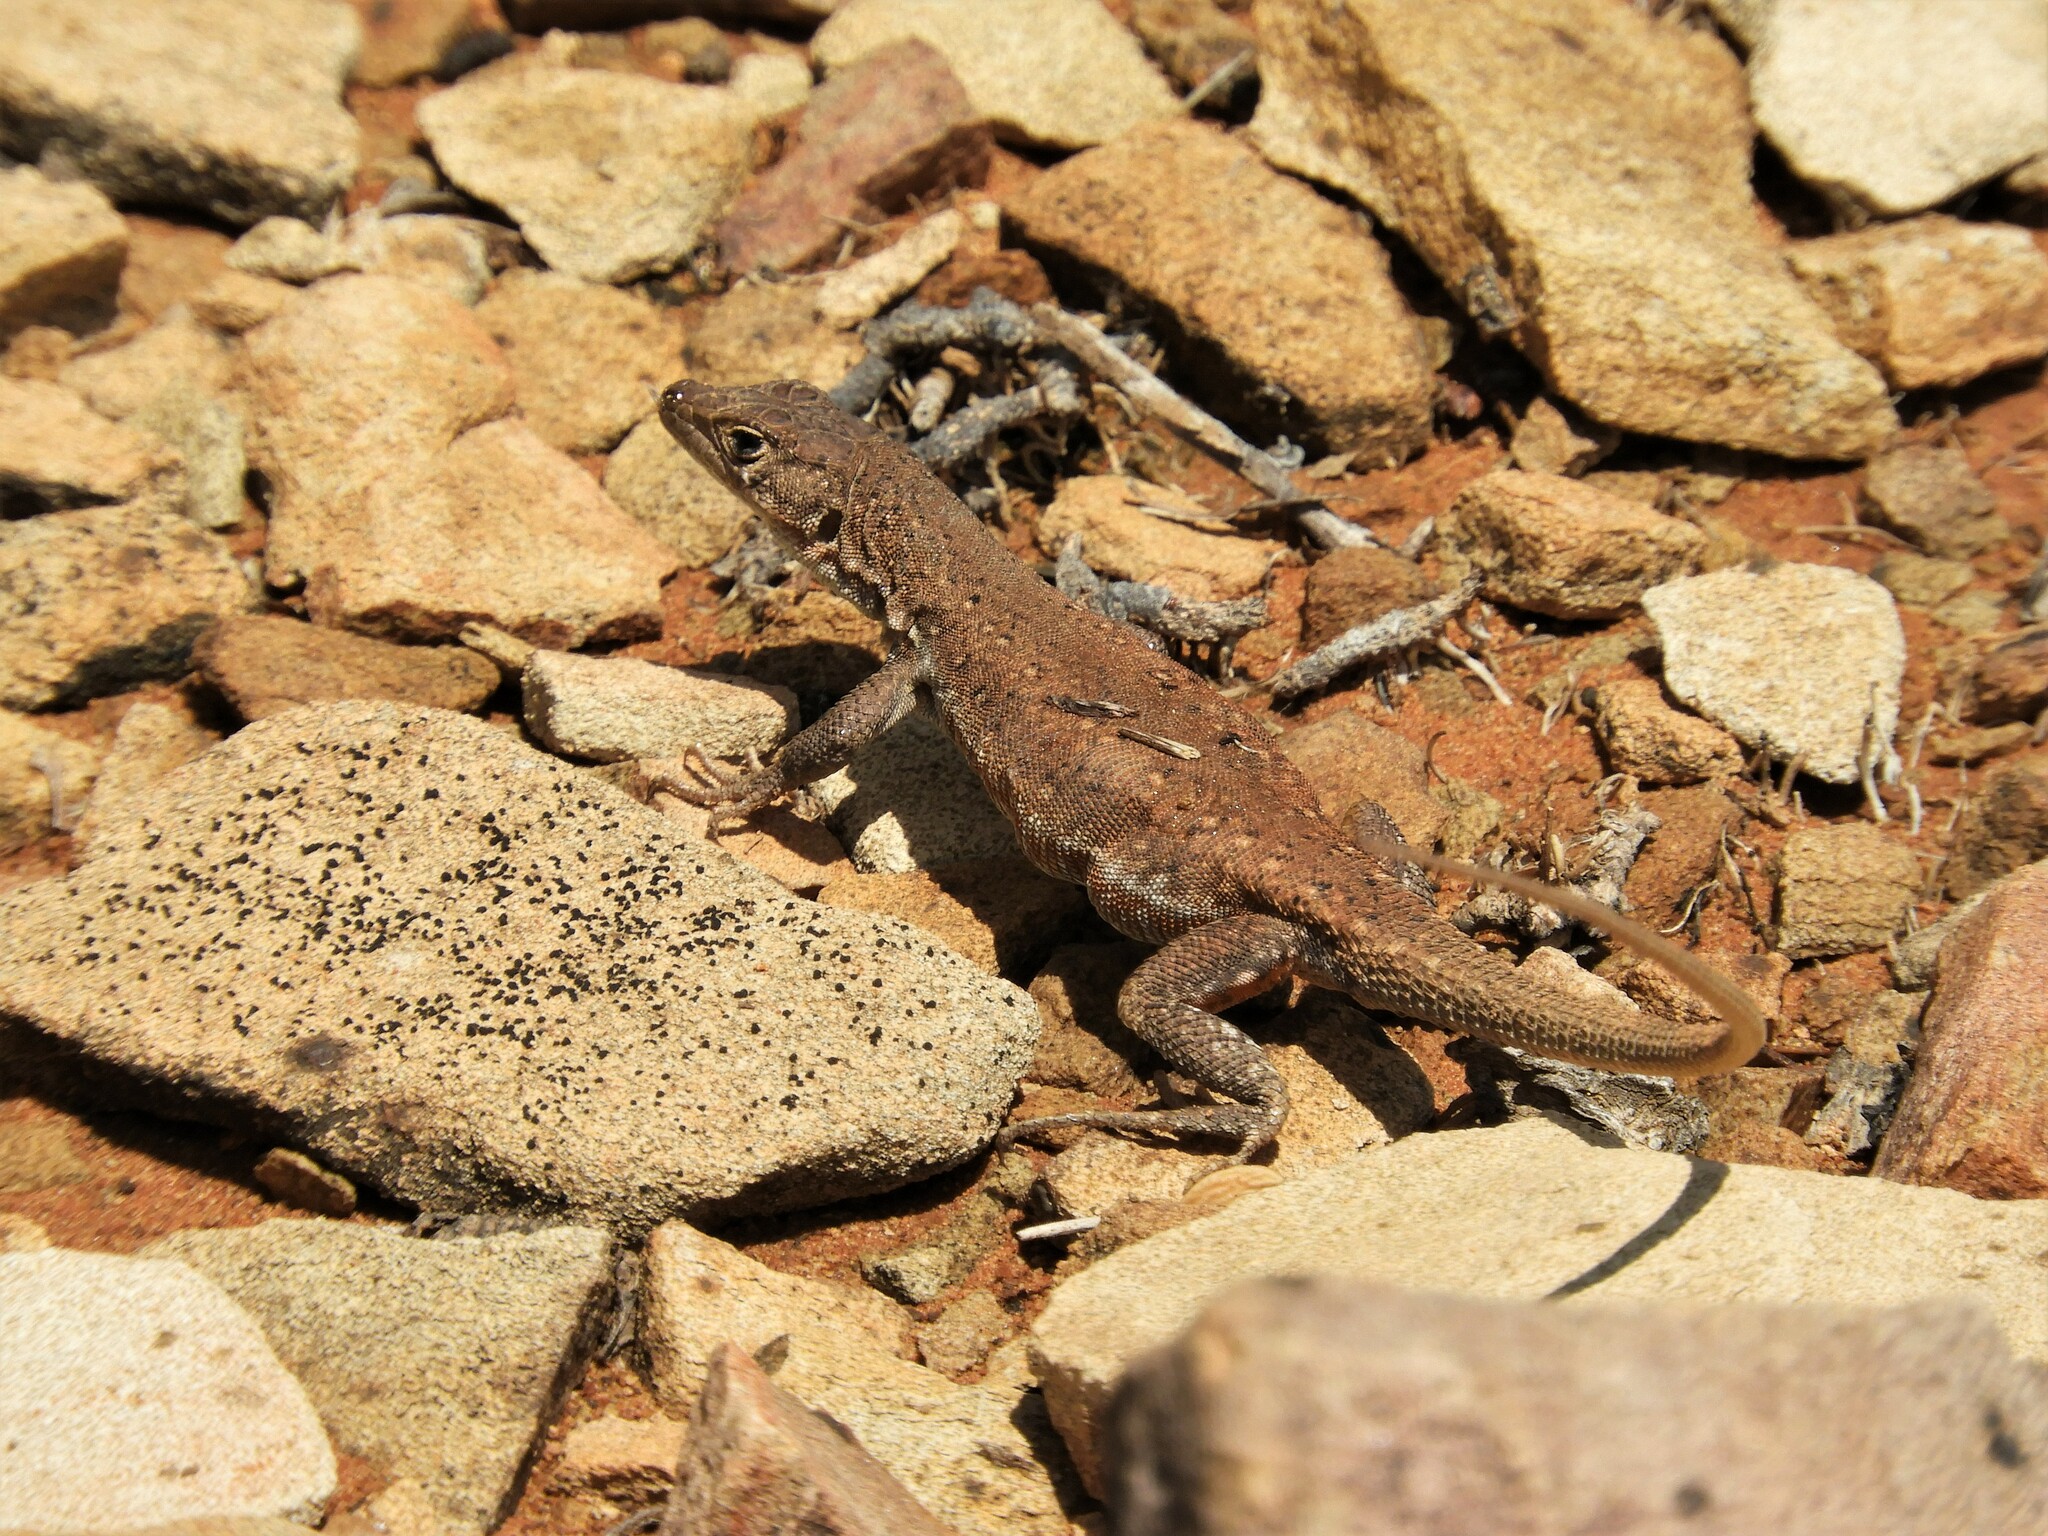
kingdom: Animalia
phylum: Chordata
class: Squamata
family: Lacertidae
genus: Pedioplanis
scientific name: Pedioplanis lineoocellata
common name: Spotted sand lizard
